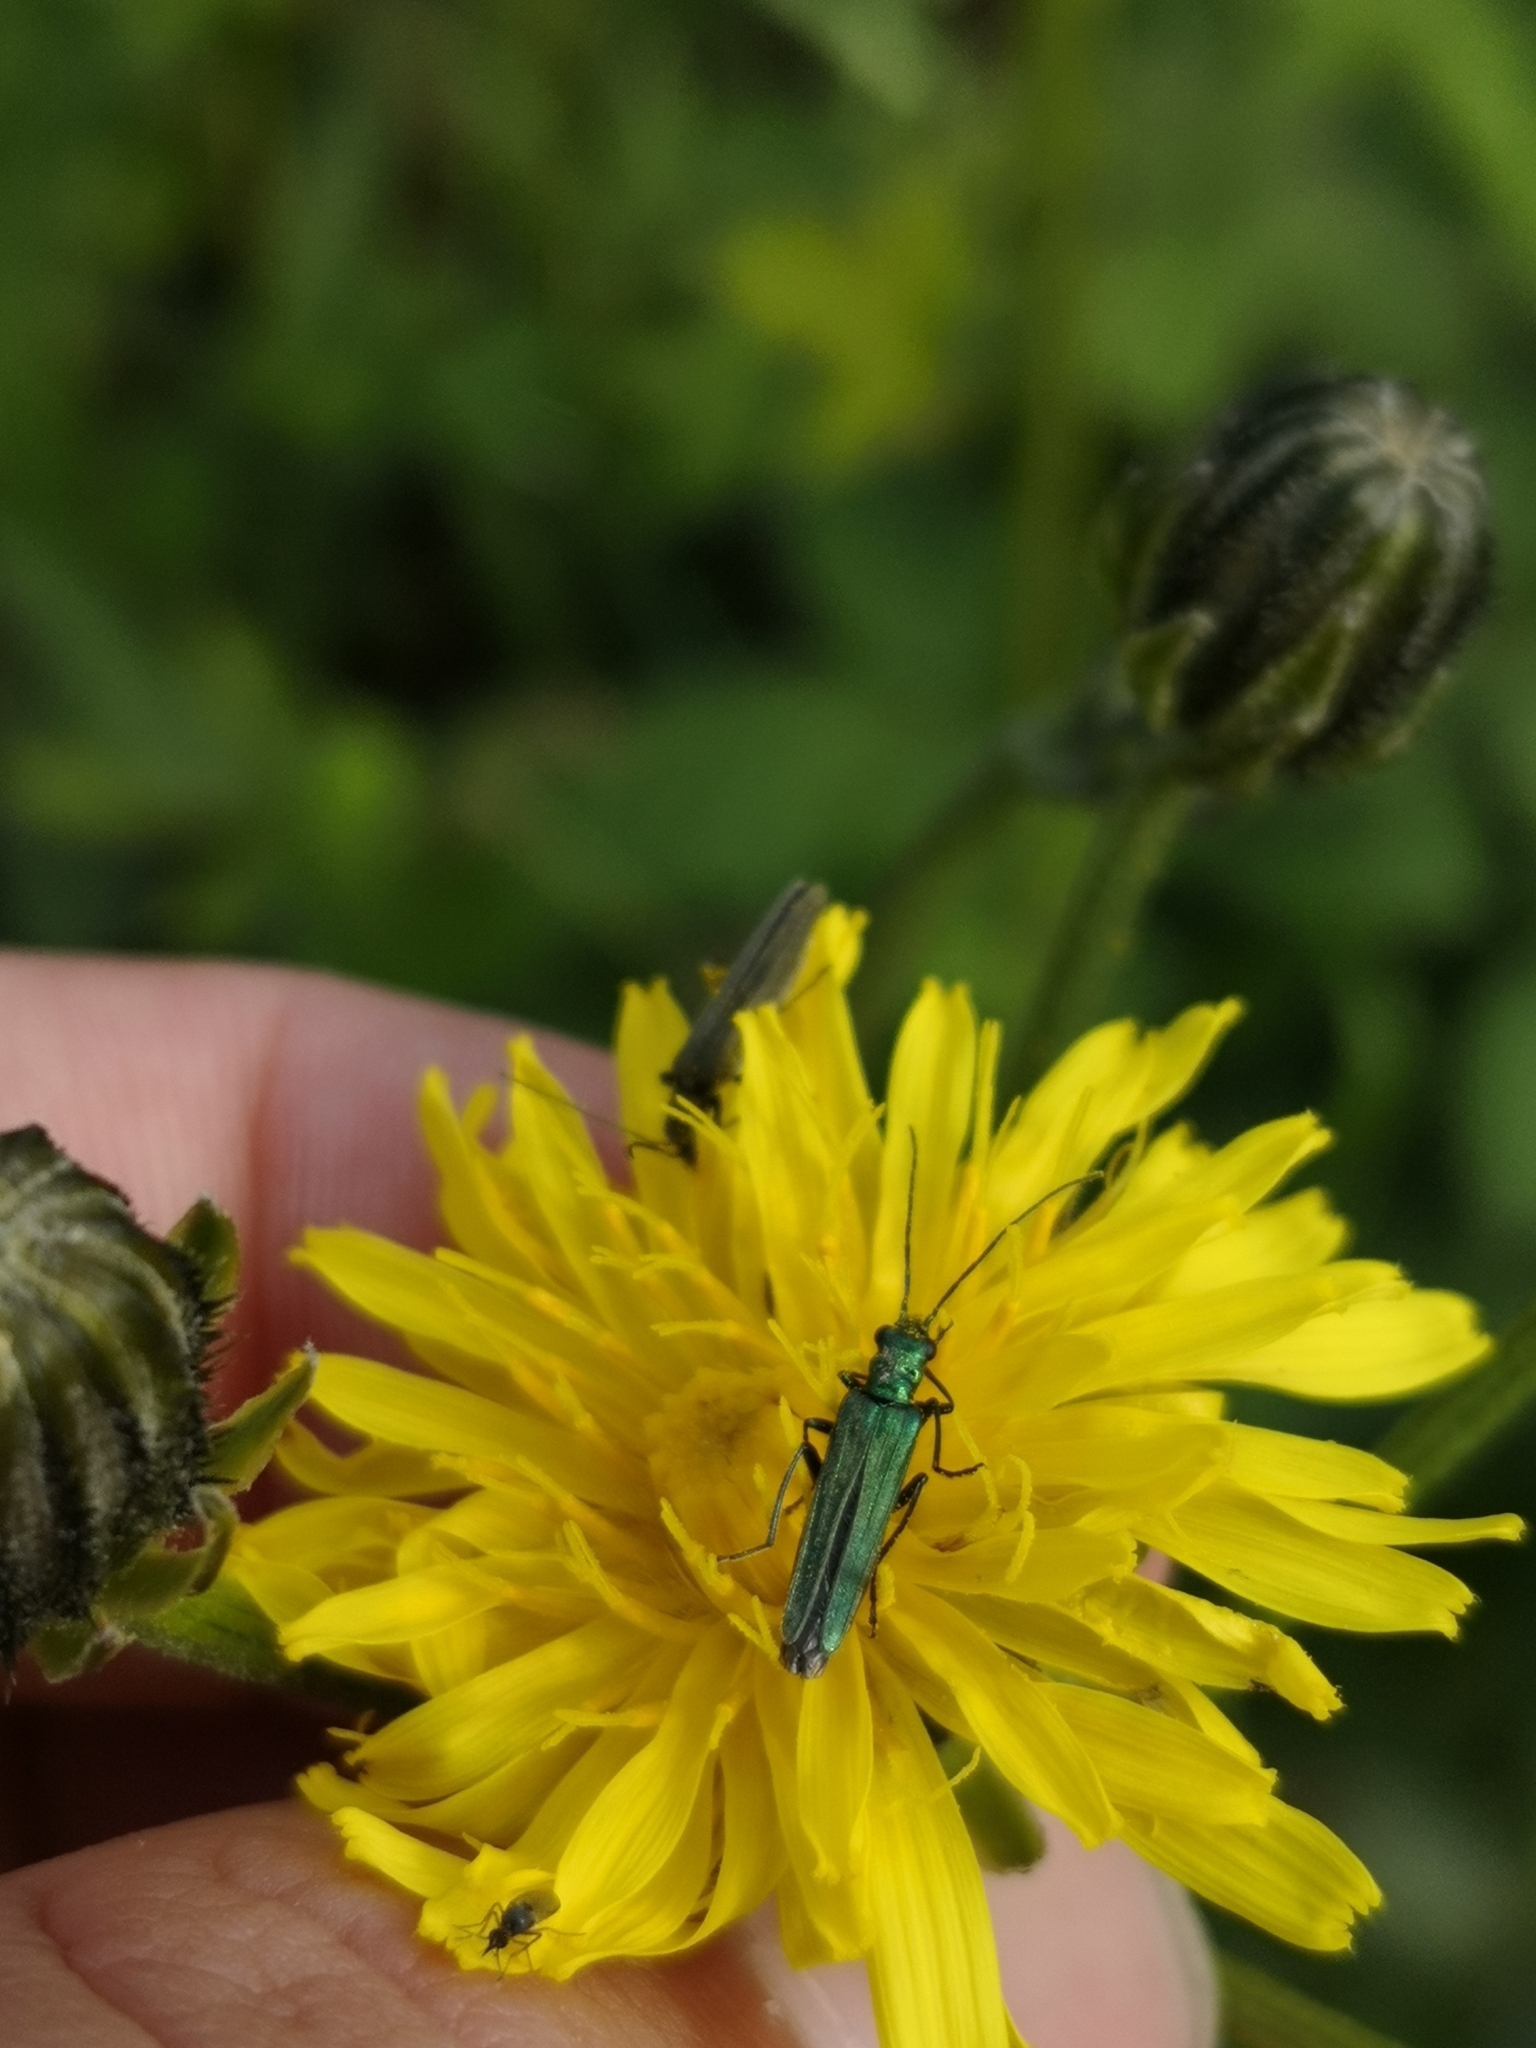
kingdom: Animalia
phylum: Arthropoda
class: Insecta
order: Coleoptera
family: Oedemeridae
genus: Oedemera
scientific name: Oedemera nobilis
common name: Swollen-thighed beetle
